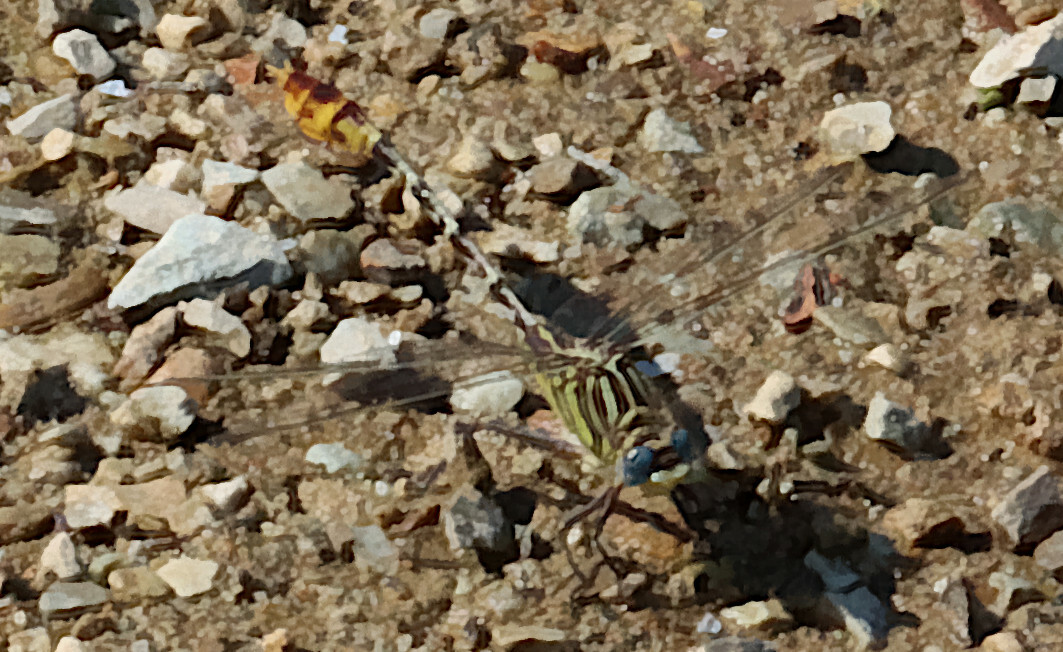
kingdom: Animalia
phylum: Arthropoda
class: Insecta
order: Odonata
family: Gomphidae
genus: Dromogomphus
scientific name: Dromogomphus spoliatus
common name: Flag-tailed spinyleg
